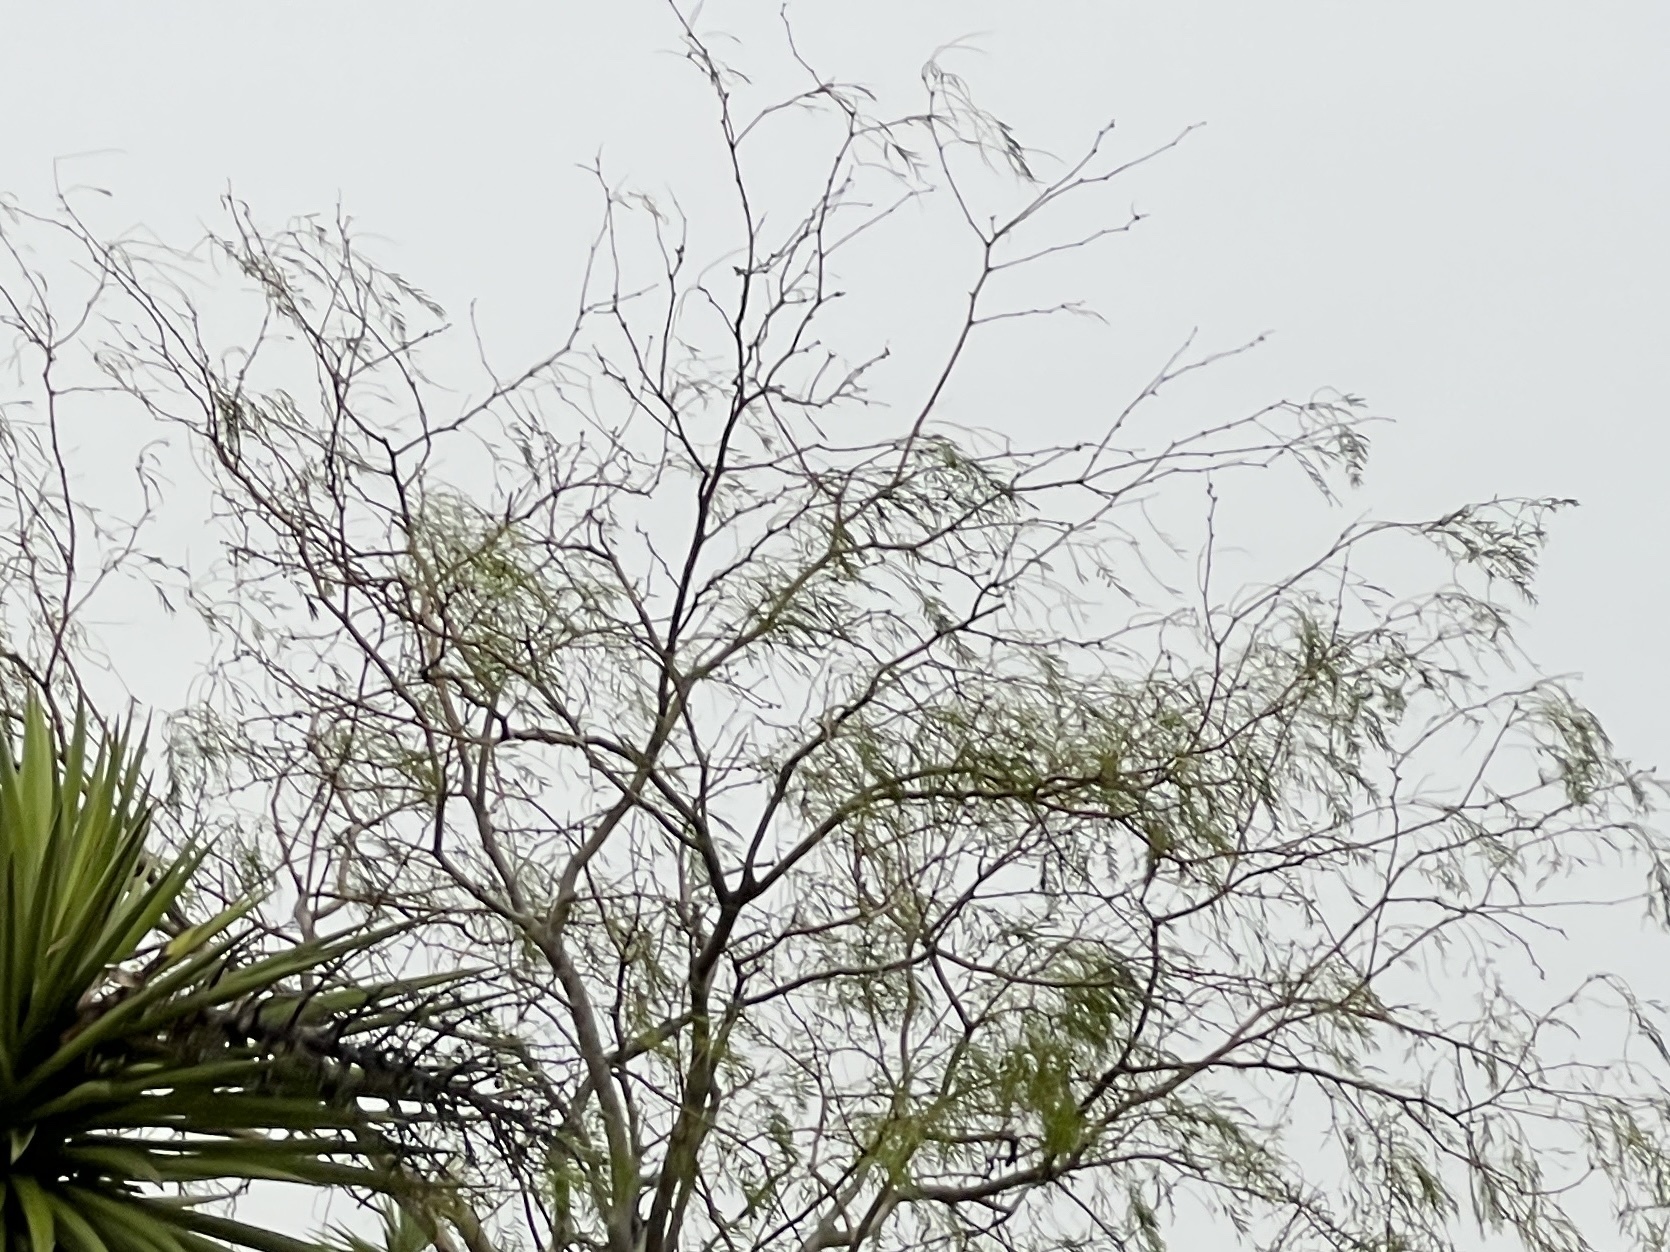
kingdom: Plantae
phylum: Tracheophyta
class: Magnoliopsida
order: Fabales
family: Fabaceae
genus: Prosopis
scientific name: Prosopis glandulosa
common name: Honey mesquite
